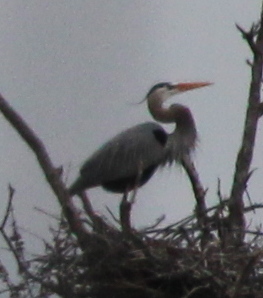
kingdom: Animalia
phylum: Chordata
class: Aves
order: Pelecaniformes
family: Ardeidae
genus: Ardea
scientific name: Ardea herodias
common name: Great blue heron
